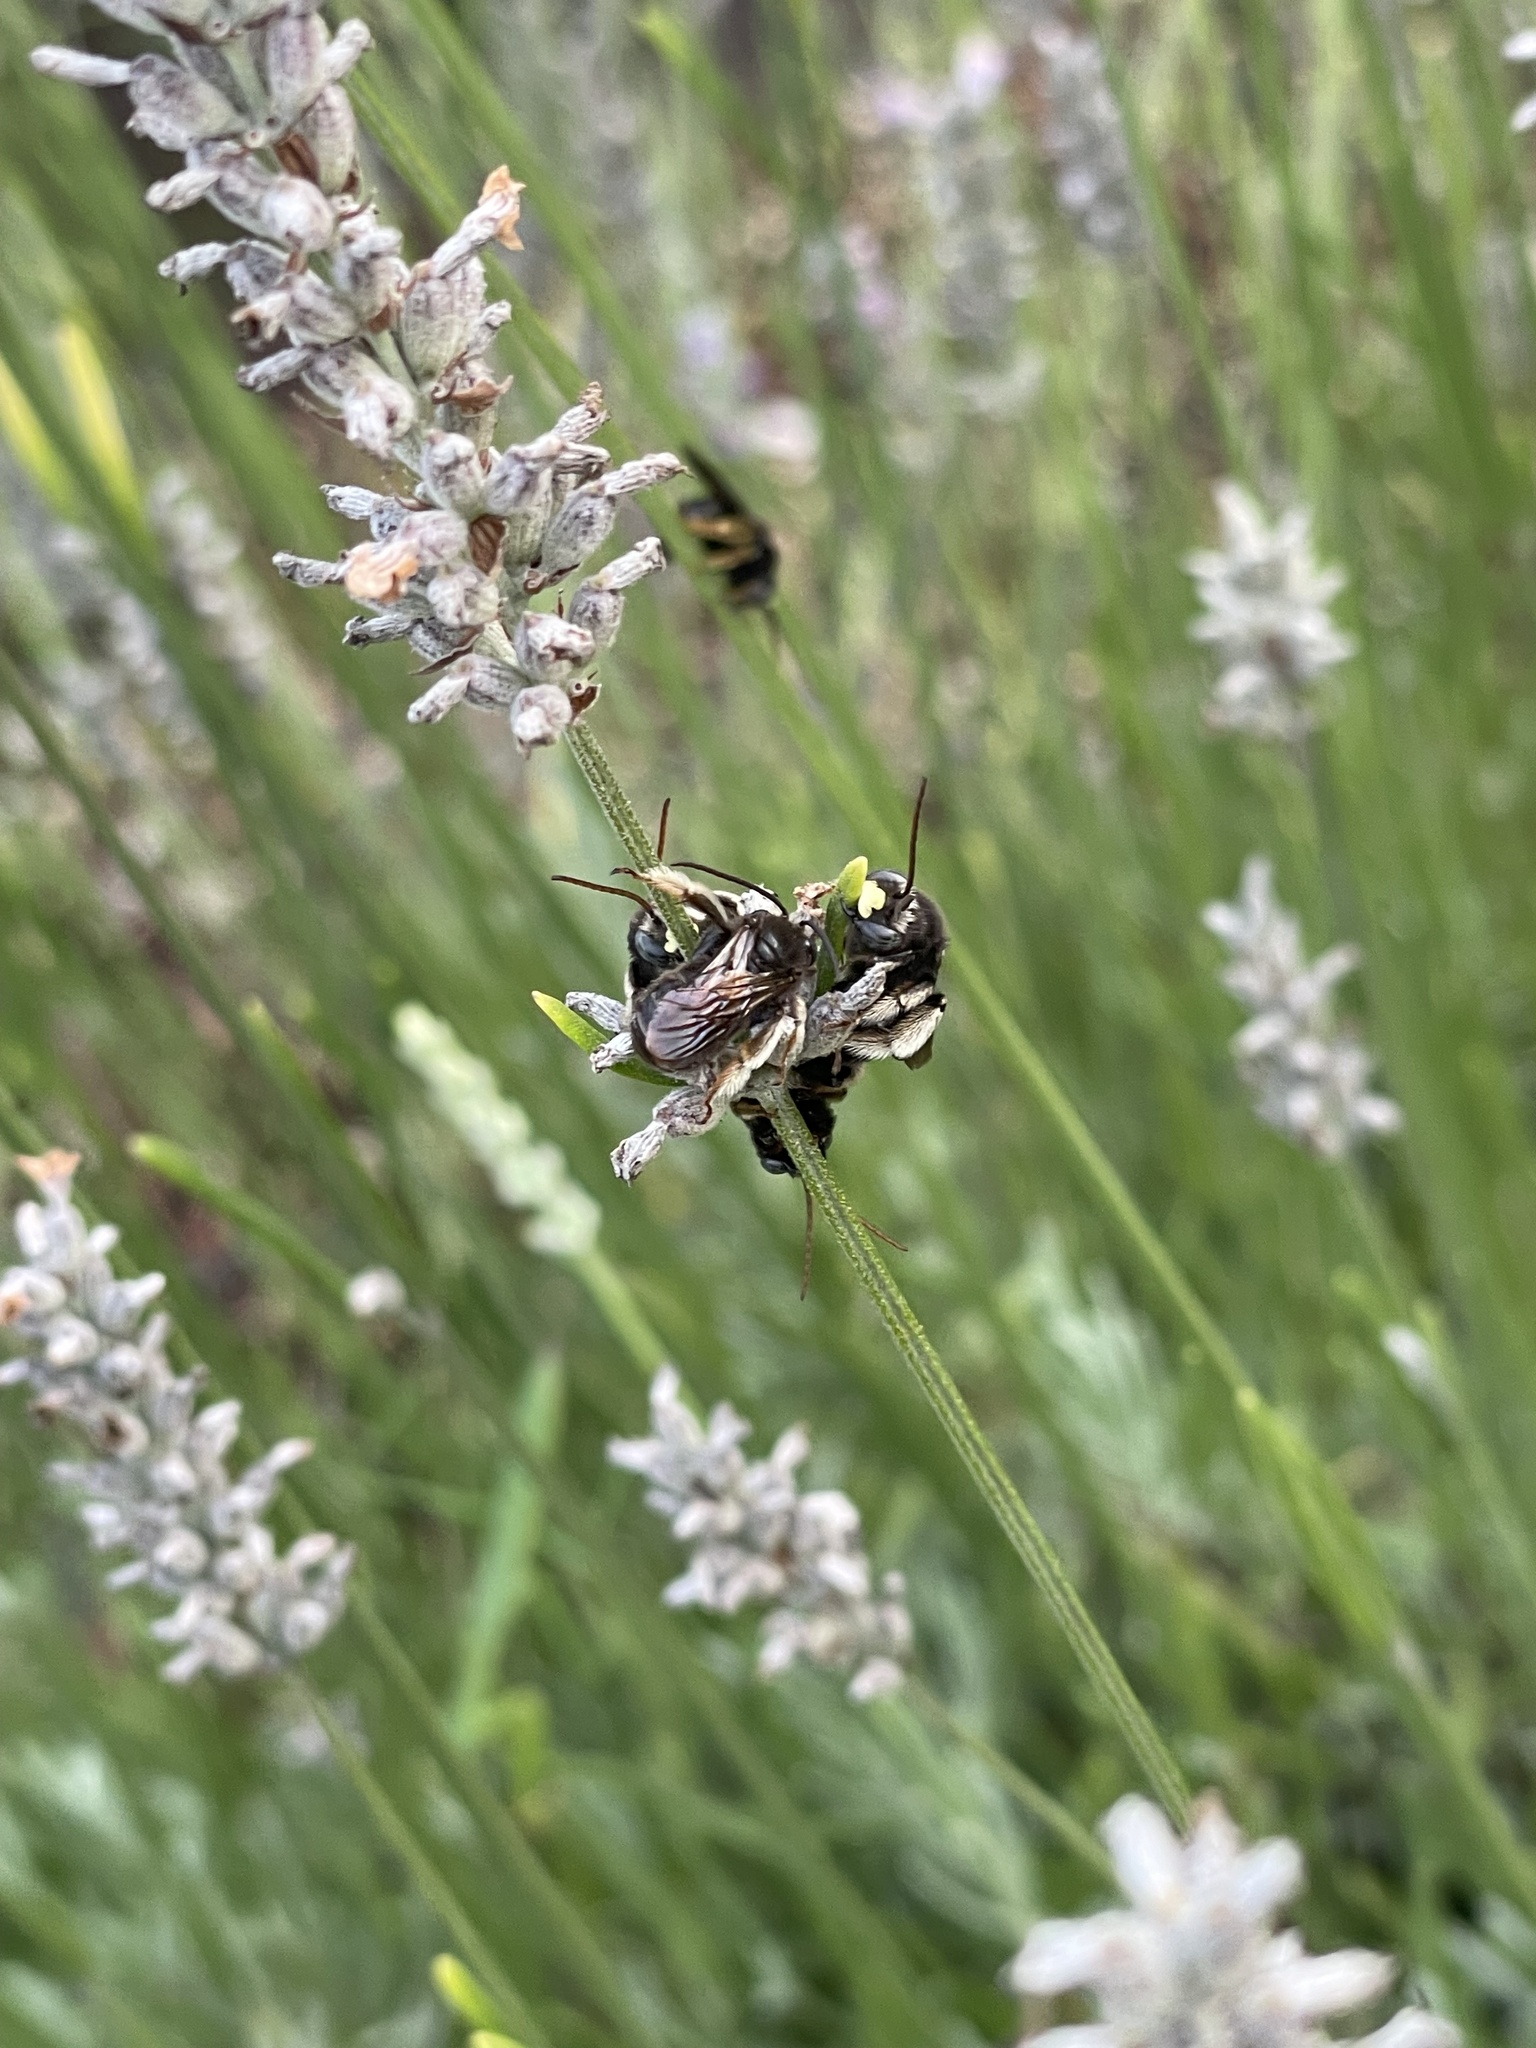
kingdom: Animalia
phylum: Arthropoda
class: Insecta
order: Hymenoptera
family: Apidae
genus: Melissodes
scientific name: Melissodes bimaculatus
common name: Two-spotted long-horned bee
